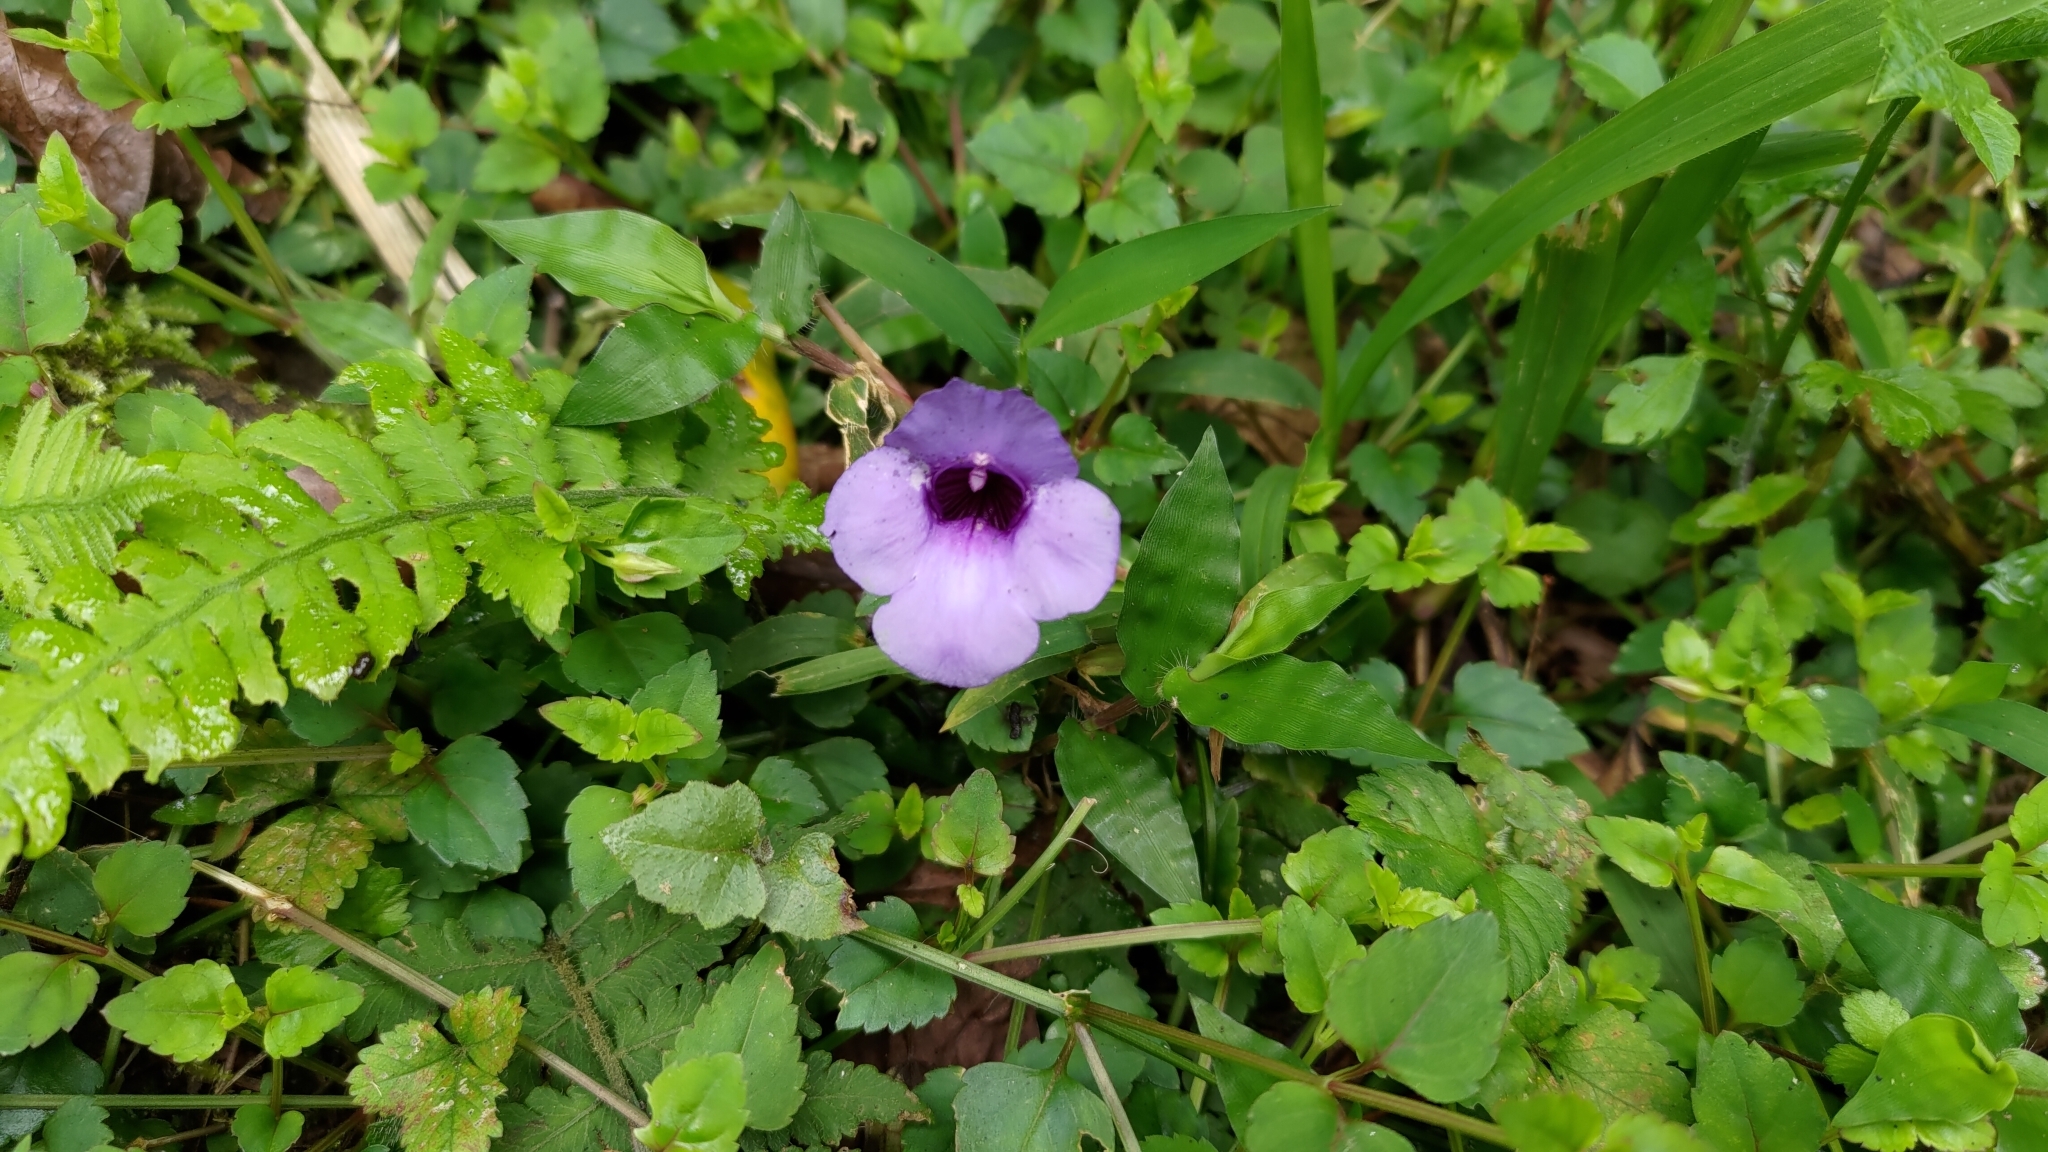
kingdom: Plantae
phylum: Tracheophyta
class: Magnoliopsida
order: Lamiales
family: Linderniaceae
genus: Torenia
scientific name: Torenia concolor
